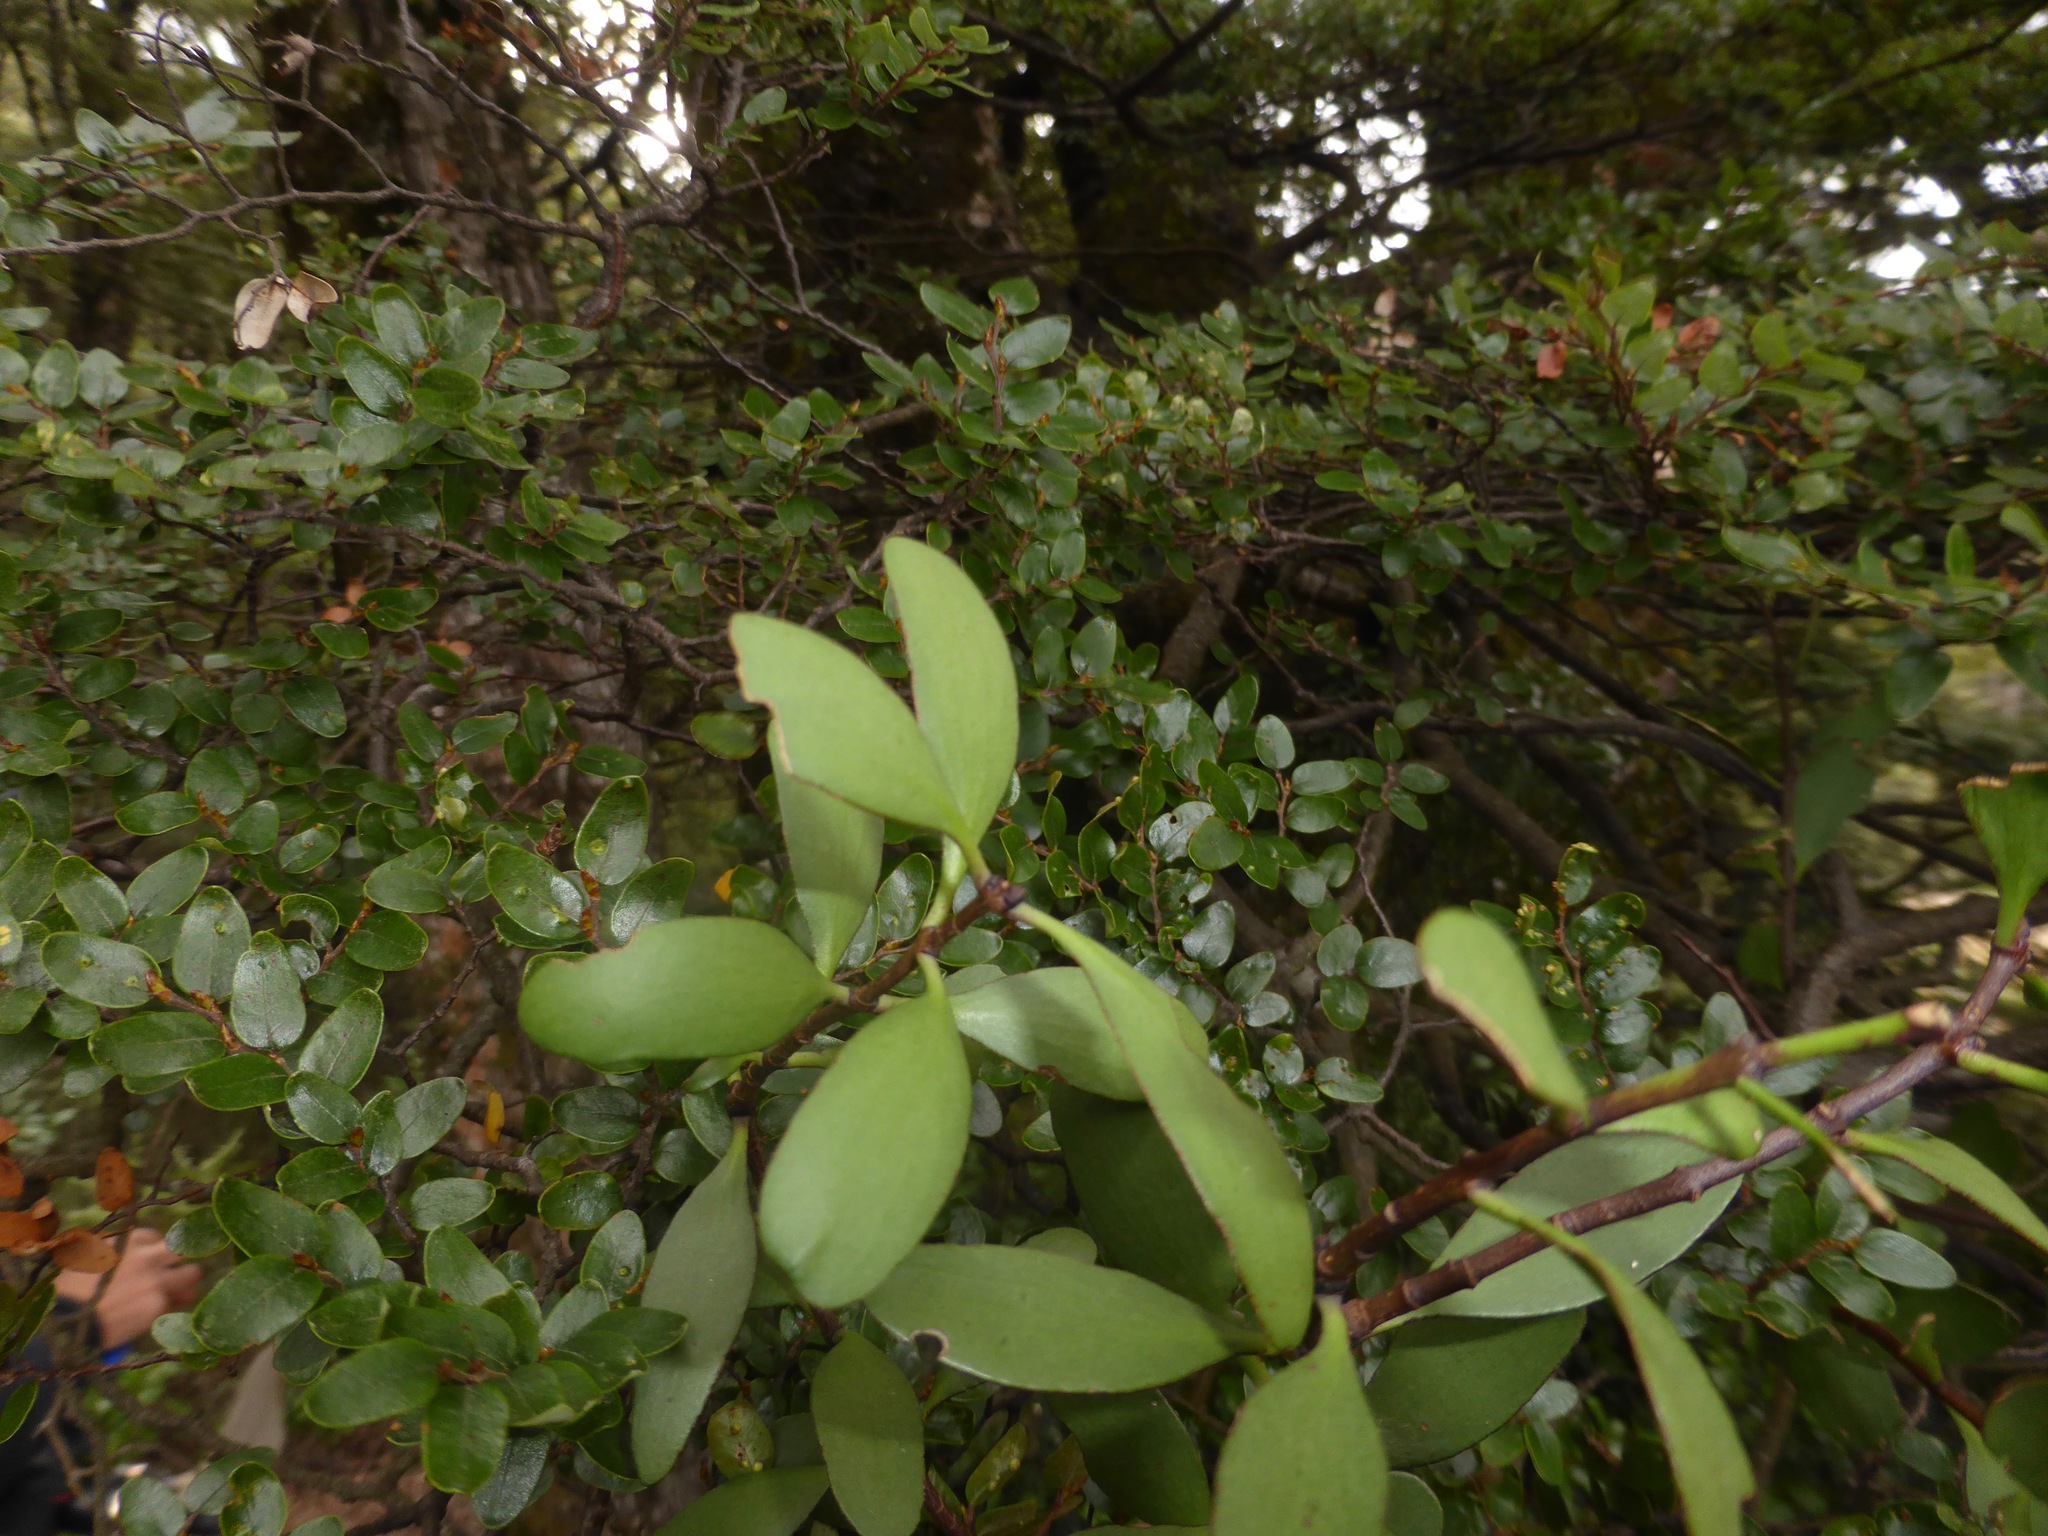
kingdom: Plantae
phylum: Tracheophyta
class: Magnoliopsida
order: Santalales
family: Loranthaceae
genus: Alepis
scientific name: Alepis flavida
